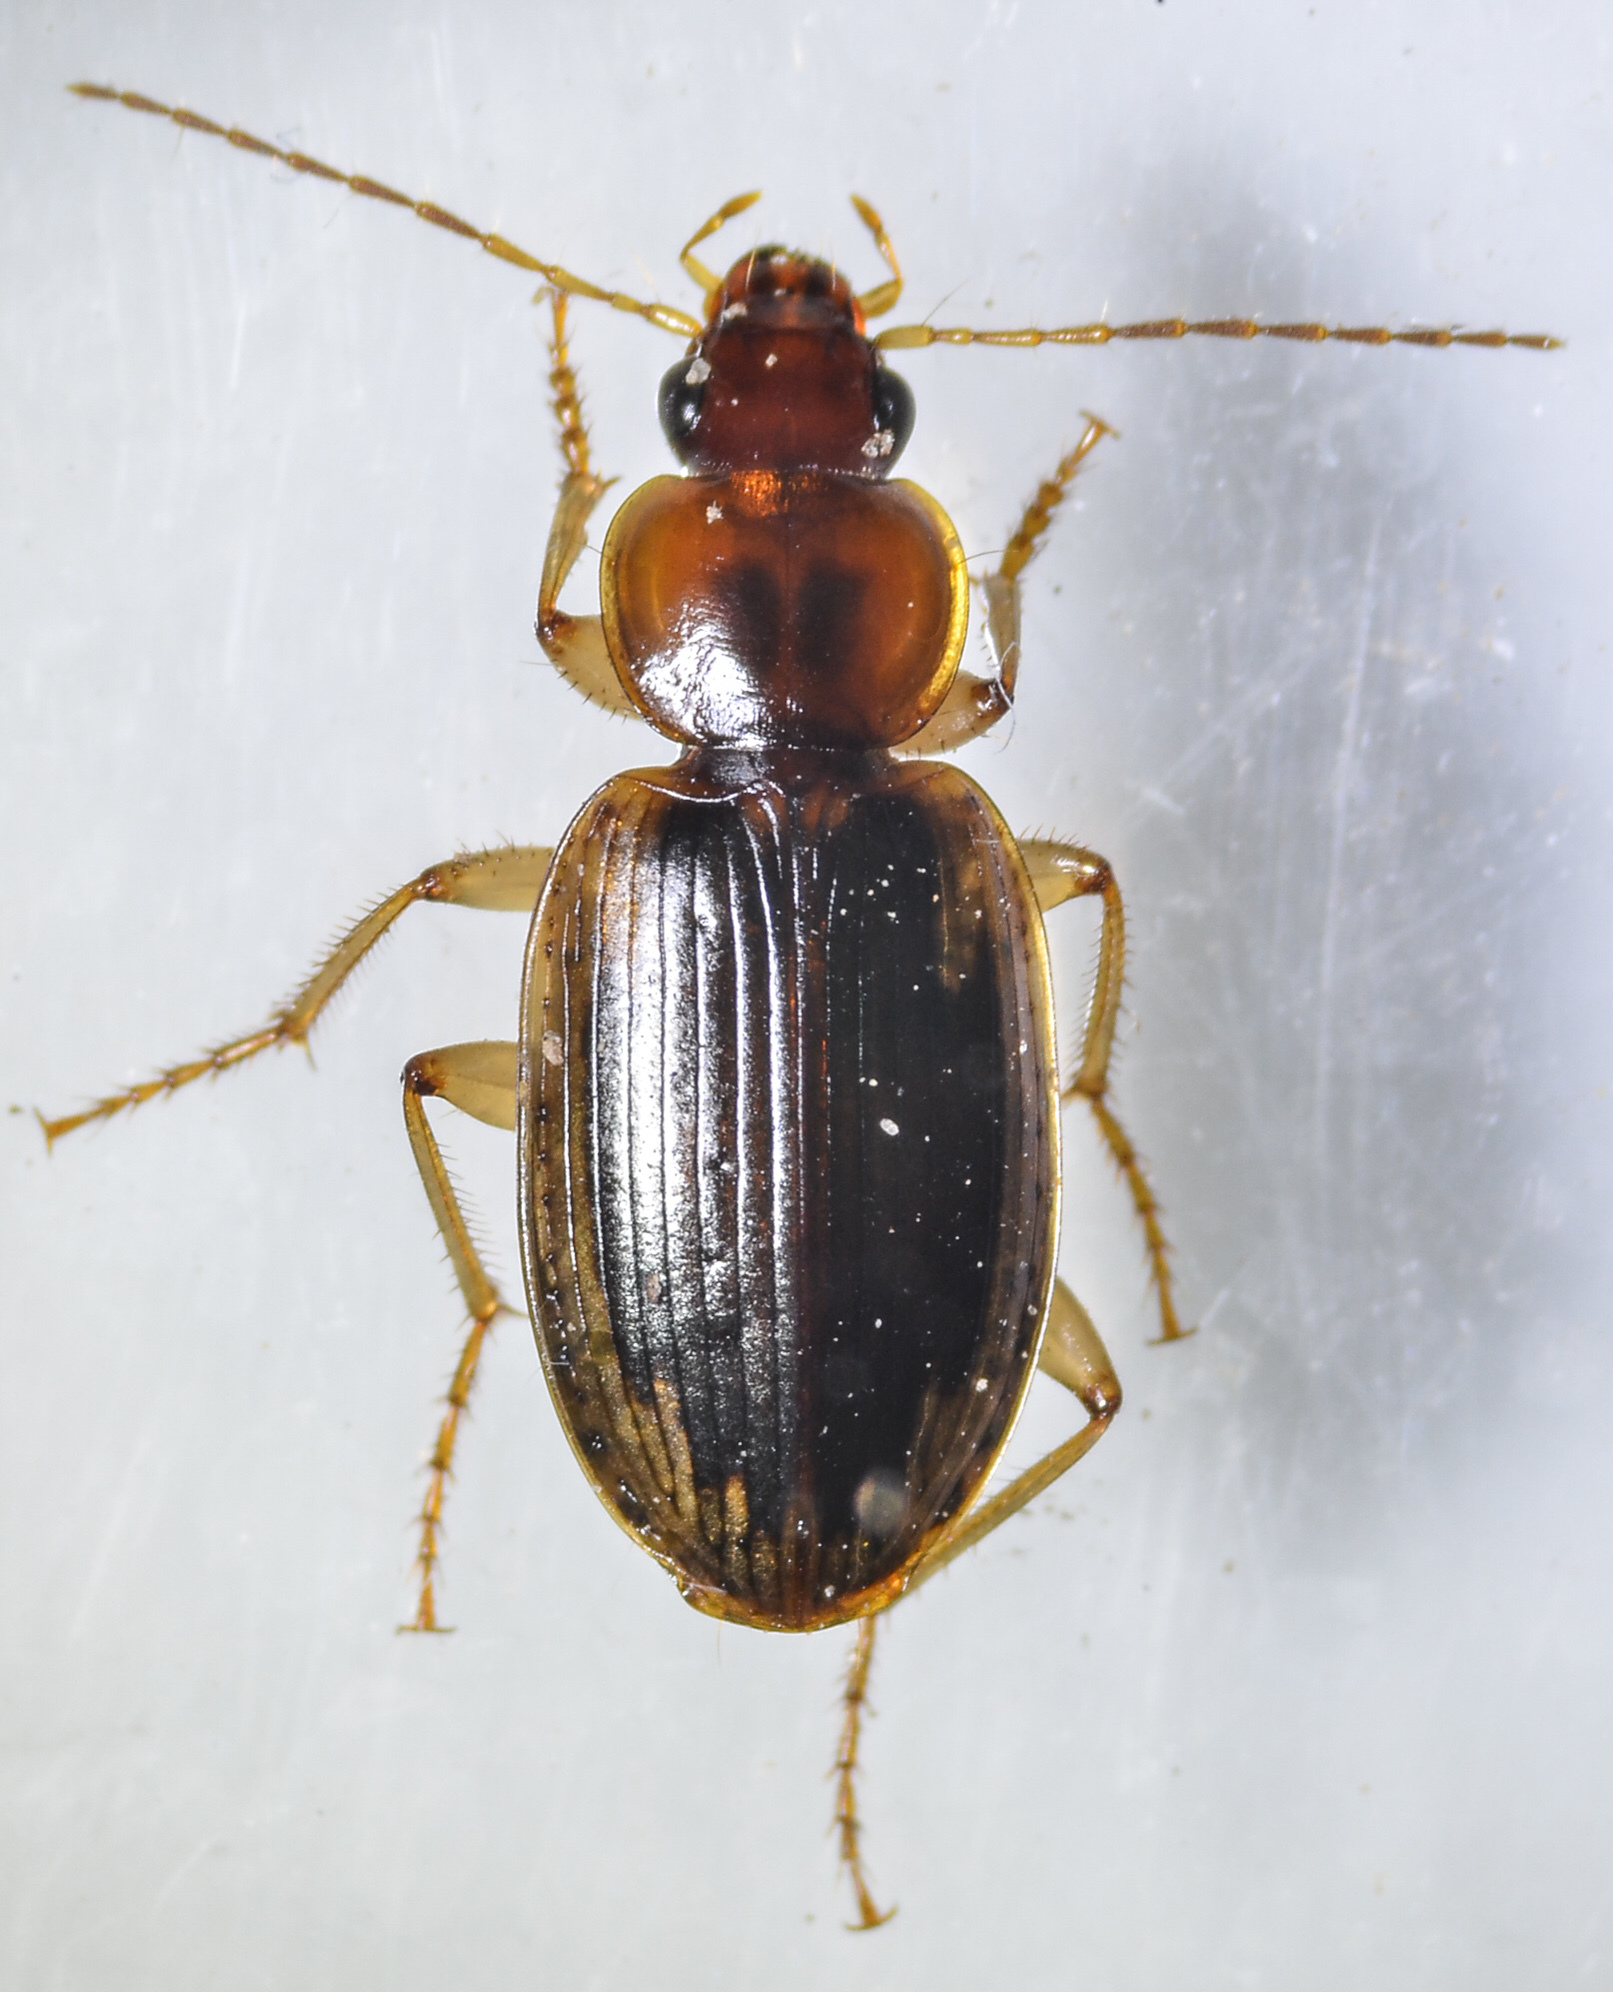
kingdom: Animalia
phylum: Arthropoda
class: Insecta
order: Coleoptera
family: Carabidae
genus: Tanystoma
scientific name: Tanystoma maculicolle
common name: Tule beetle
